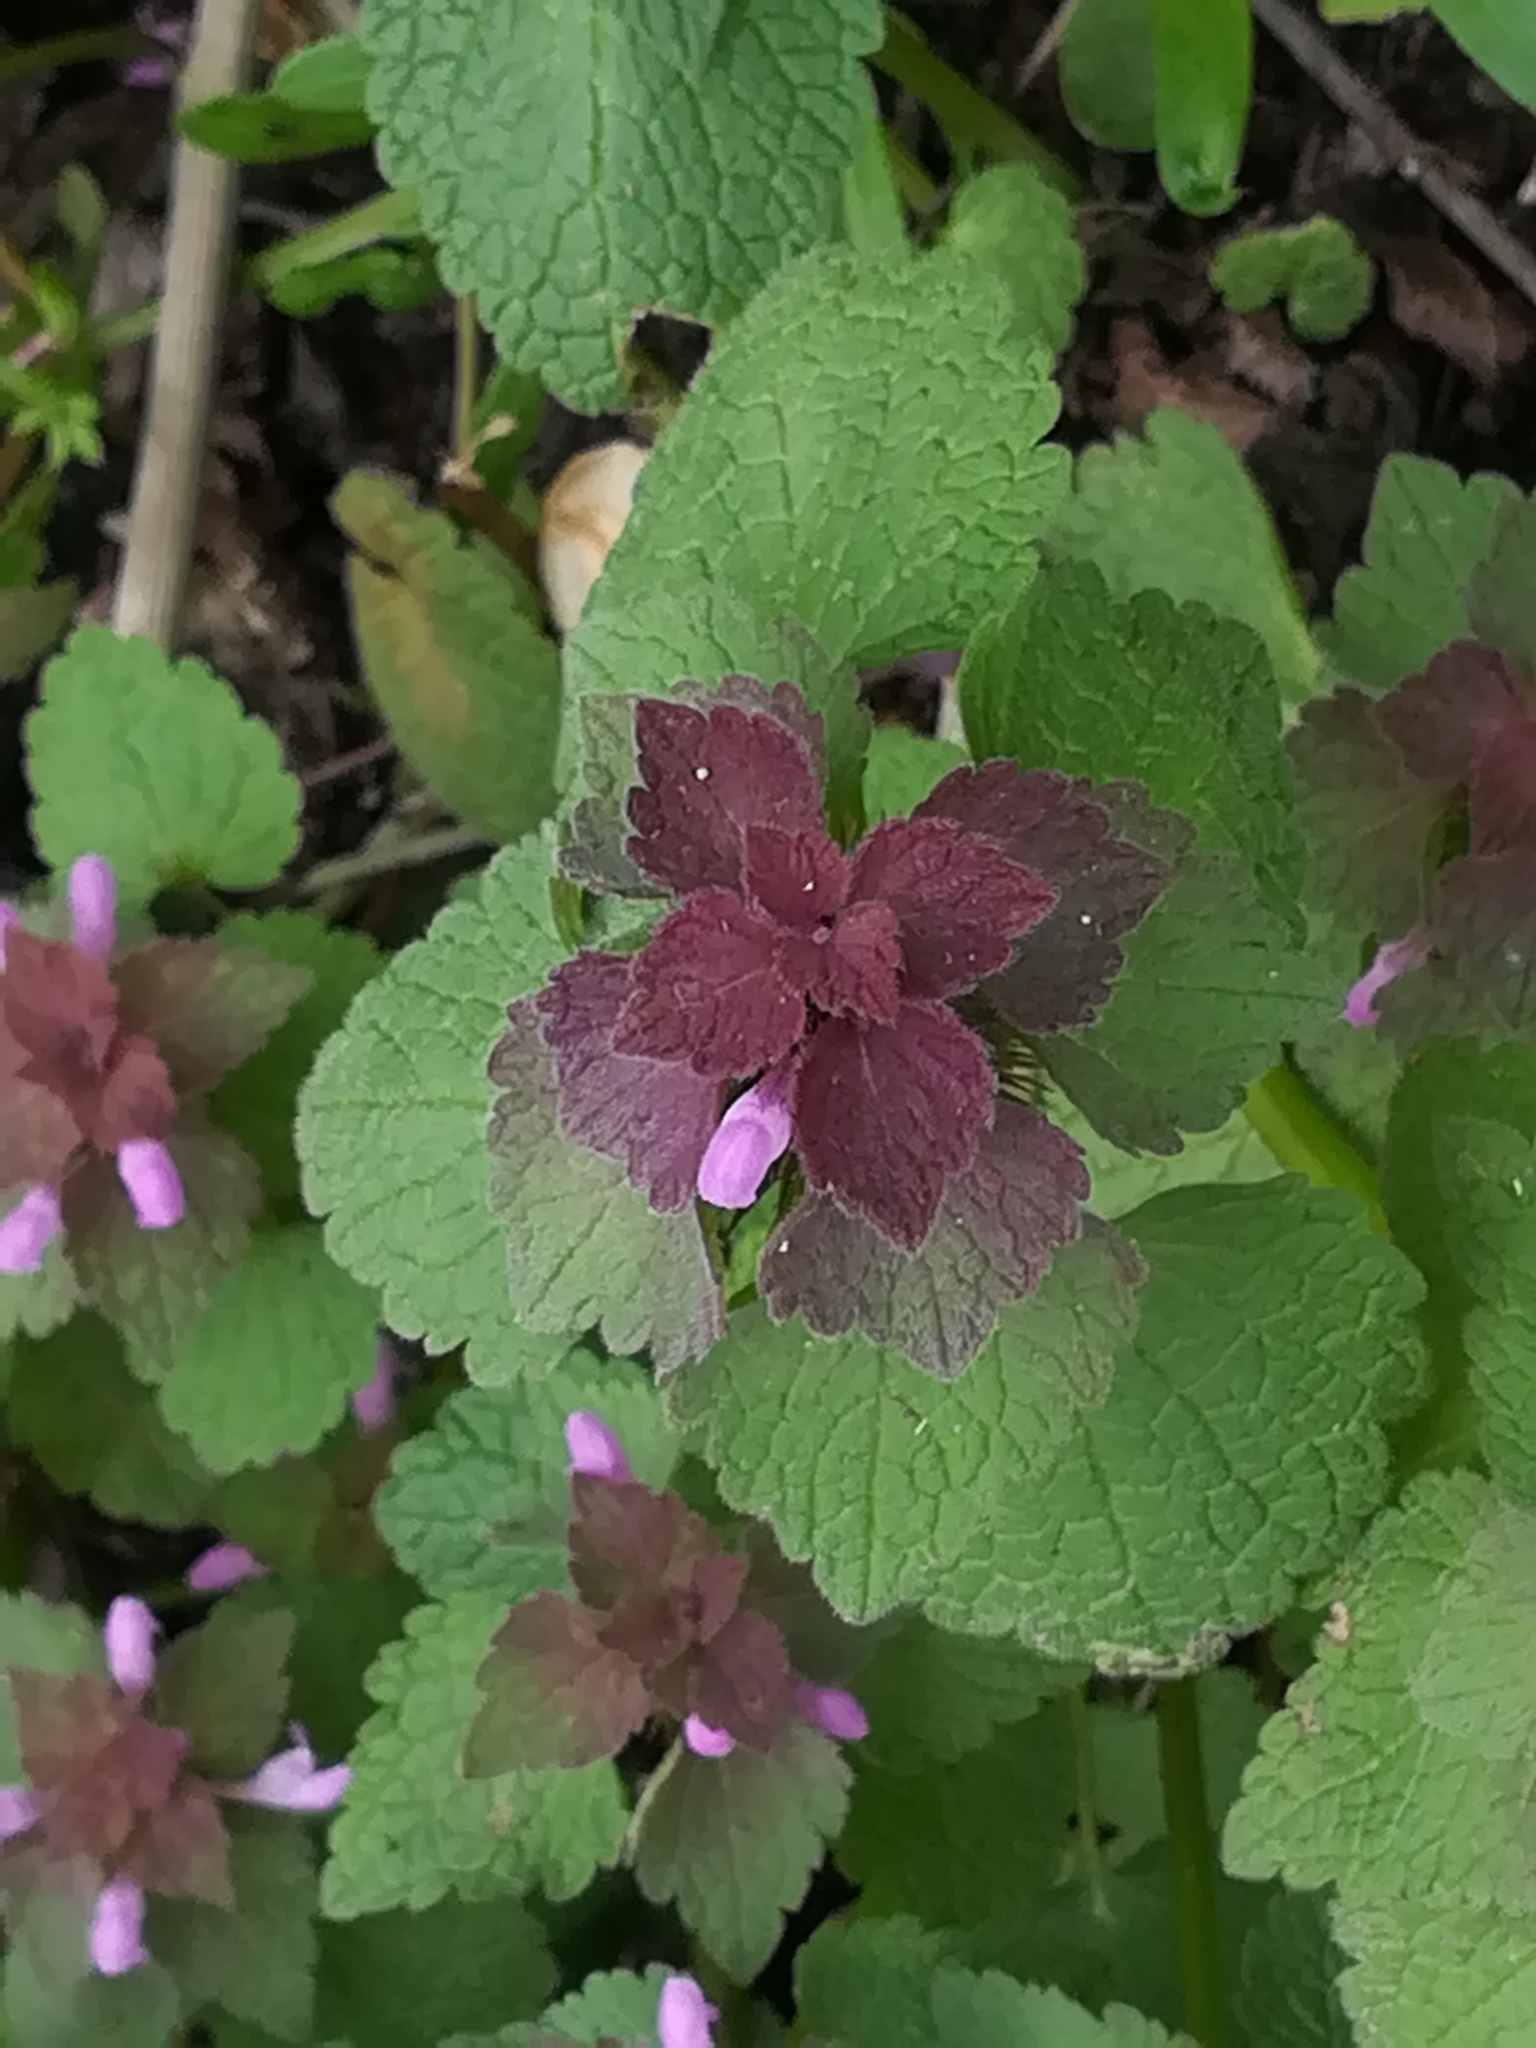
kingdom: Plantae
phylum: Tracheophyta
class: Magnoliopsida
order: Lamiales
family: Lamiaceae
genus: Lamium
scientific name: Lamium purpureum
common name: Red dead-nettle
